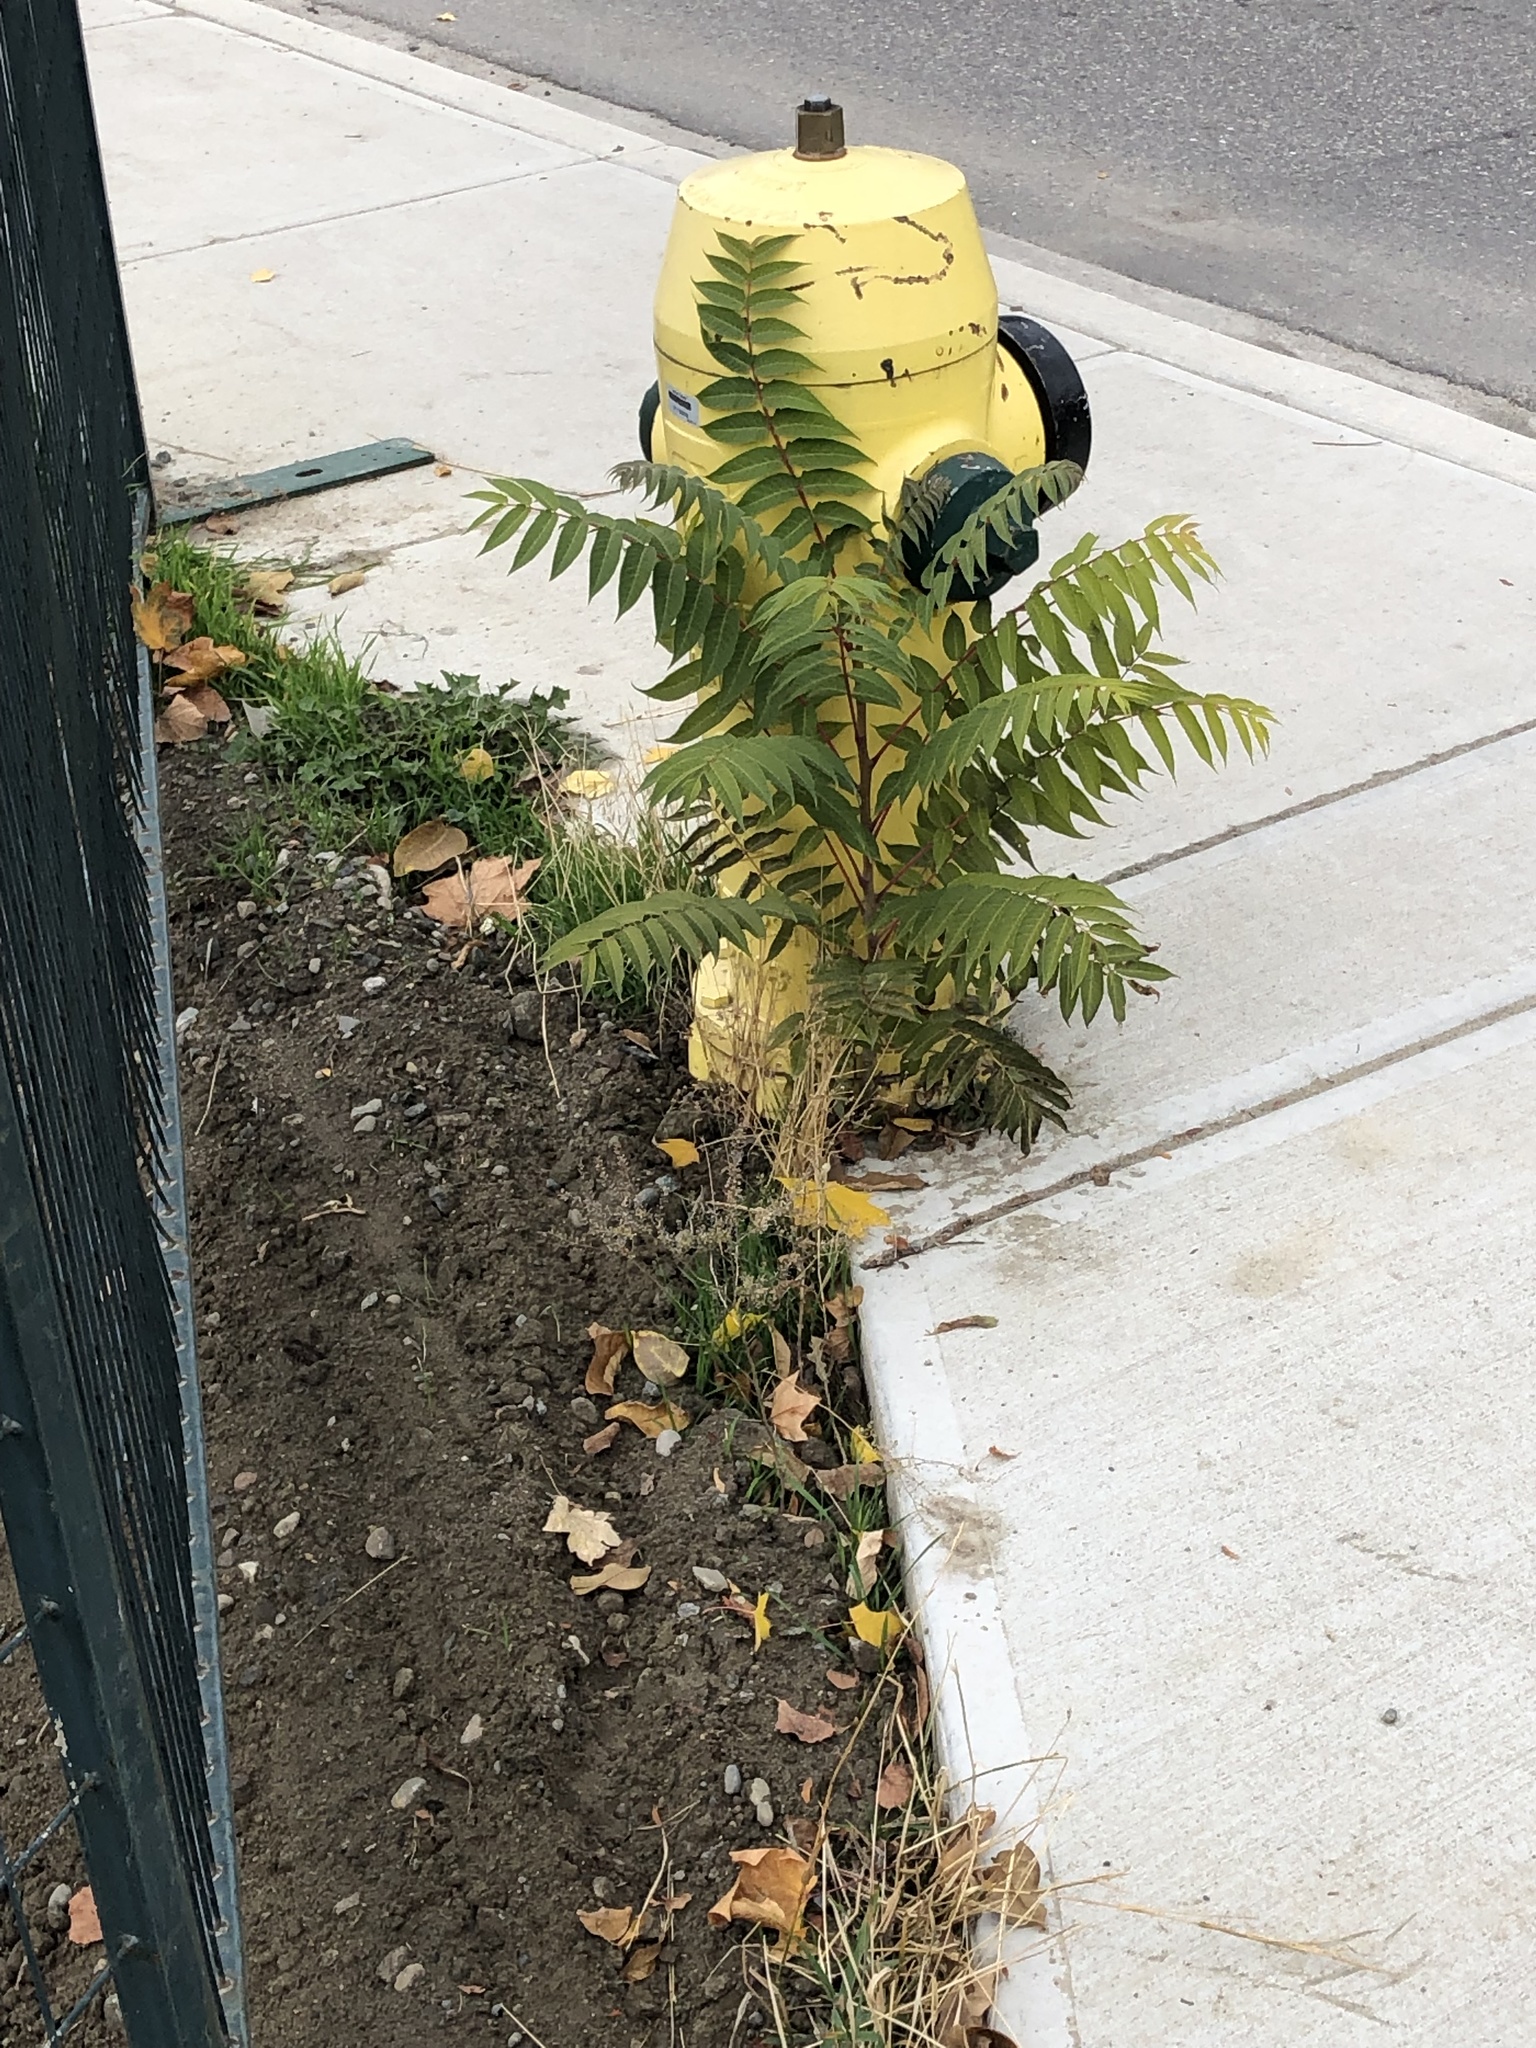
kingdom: Plantae
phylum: Tracheophyta
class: Magnoliopsida
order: Sapindales
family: Simaroubaceae
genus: Ailanthus
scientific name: Ailanthus altissima
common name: Tree-of-heaven
